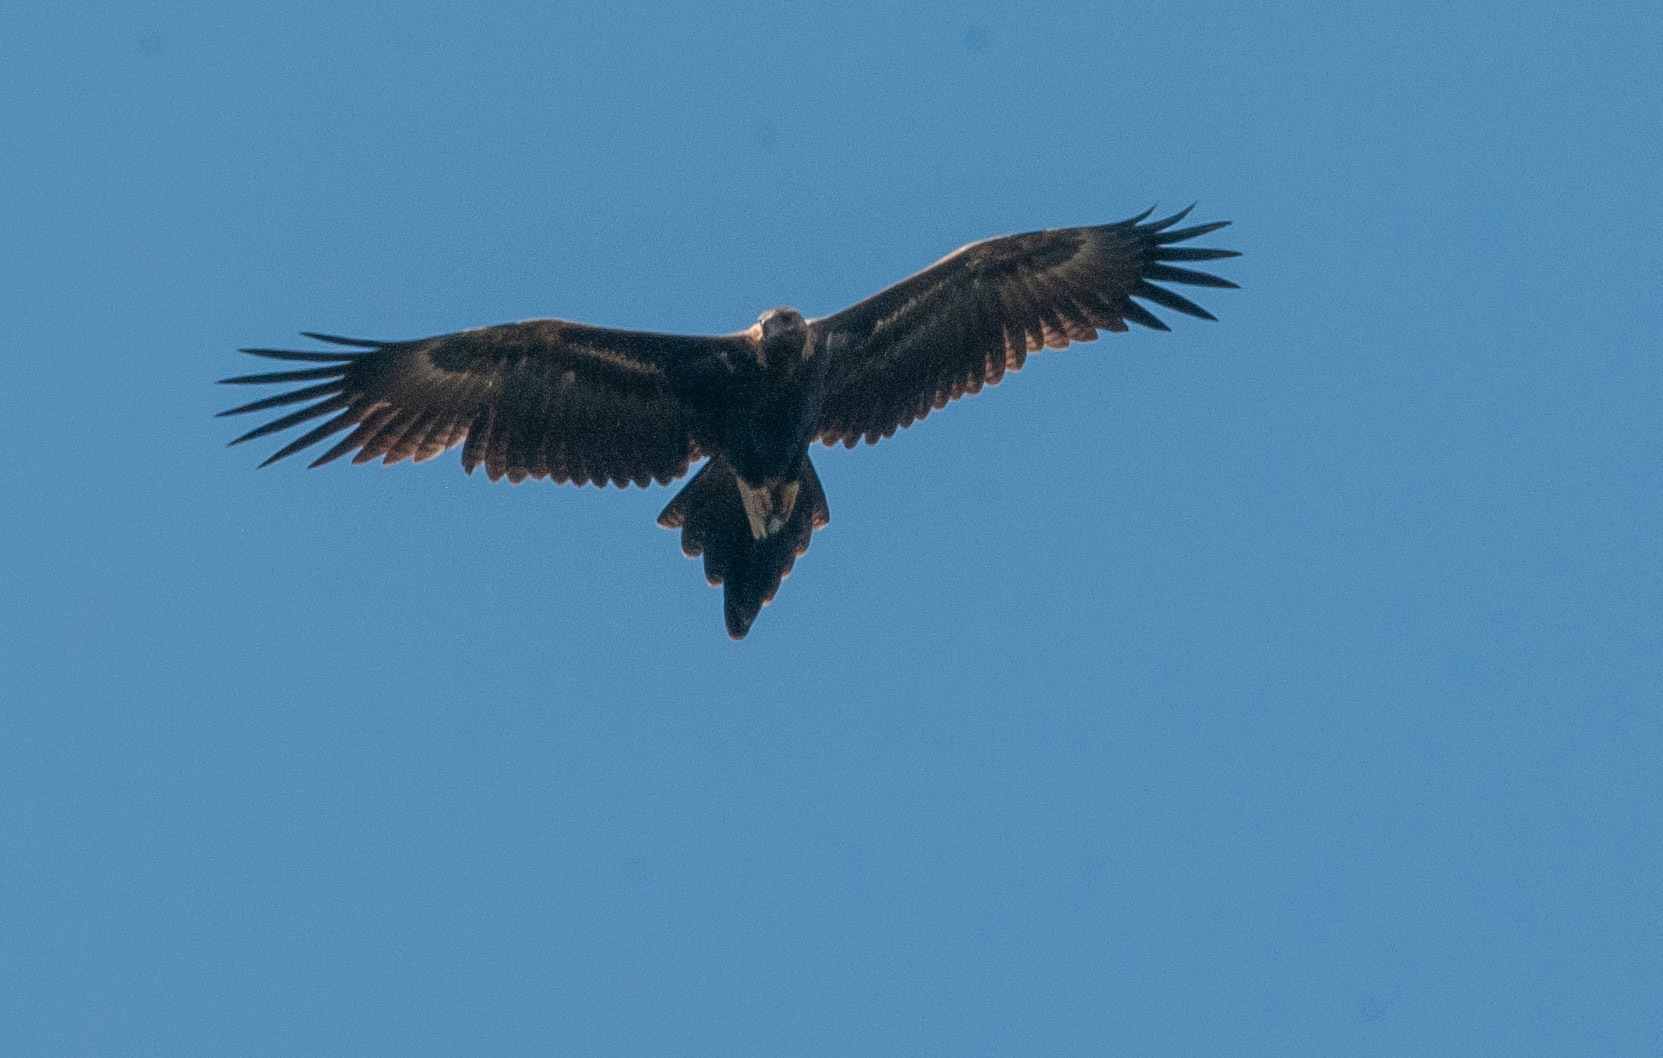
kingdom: Animalia
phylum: Chordata
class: Aves
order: Accipitriformes
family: Accipitridae
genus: Aquila
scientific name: Aquila audax
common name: Wedge-tailed eagle
